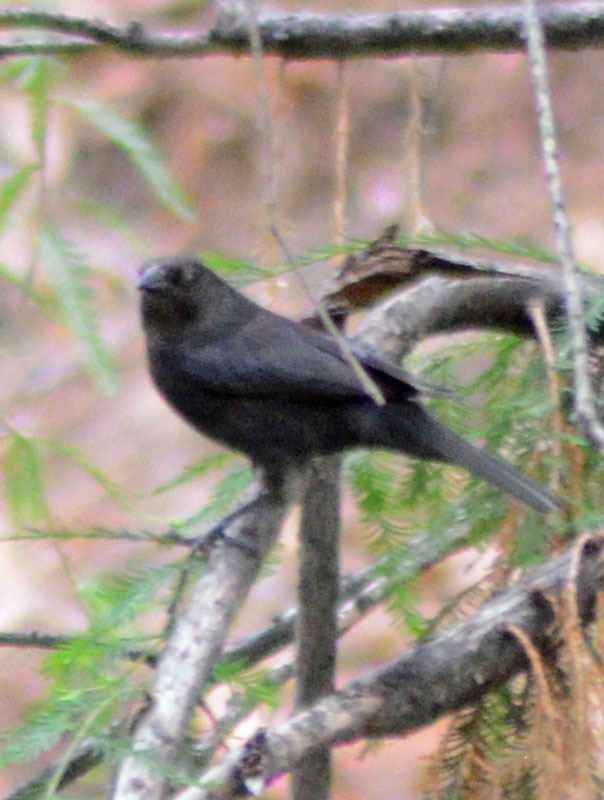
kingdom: Animalia
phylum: Chordata
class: Aves
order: Passeriformes
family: Icteridae
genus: Molothrus
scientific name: Molothrus aeneus
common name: Bronzed cowbird
